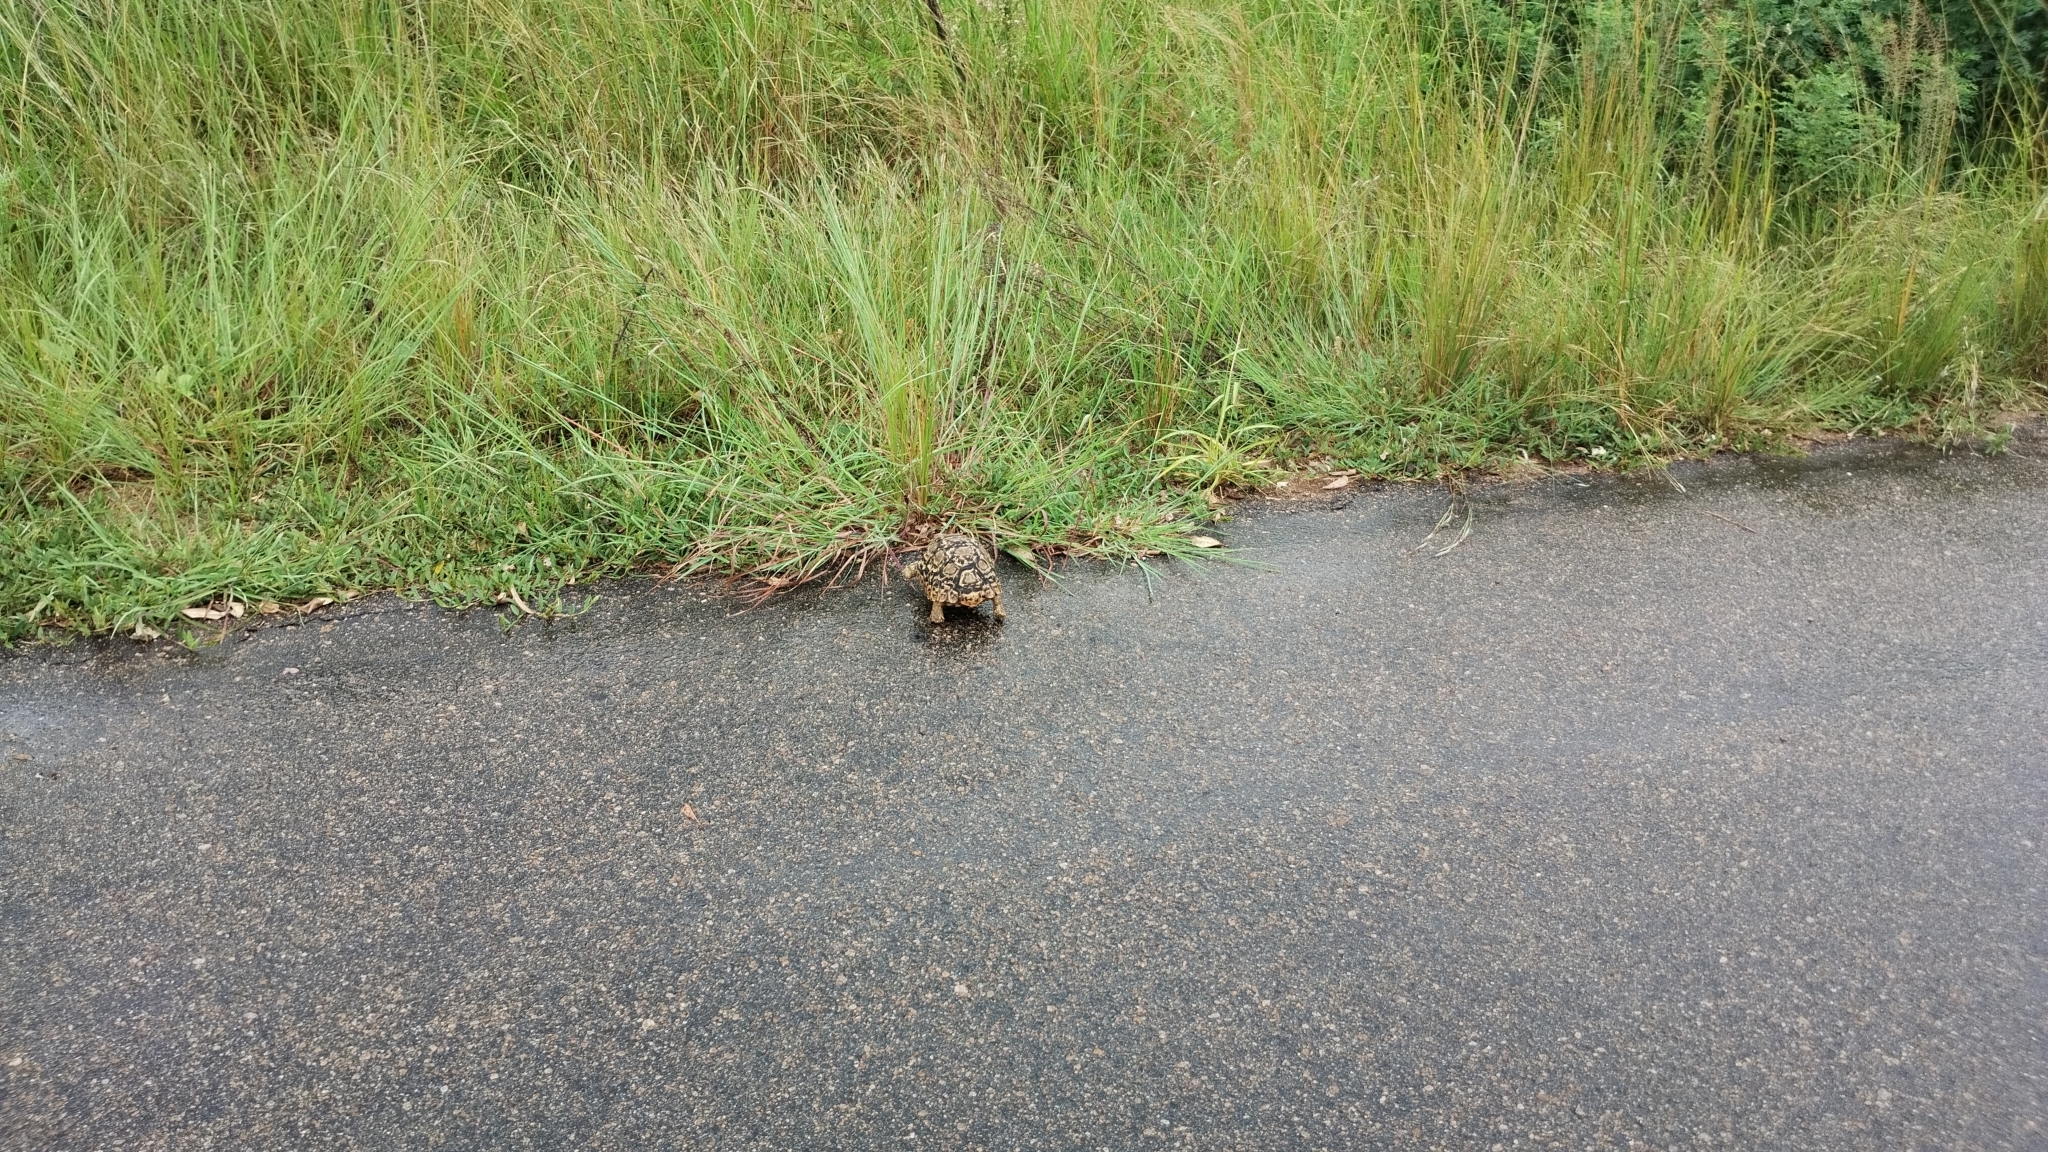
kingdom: Animalia
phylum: Chordata
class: Testudines
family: Testudinidae
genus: Stigmochelys
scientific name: Stigmochelys pardalis
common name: Leopard tortoise
